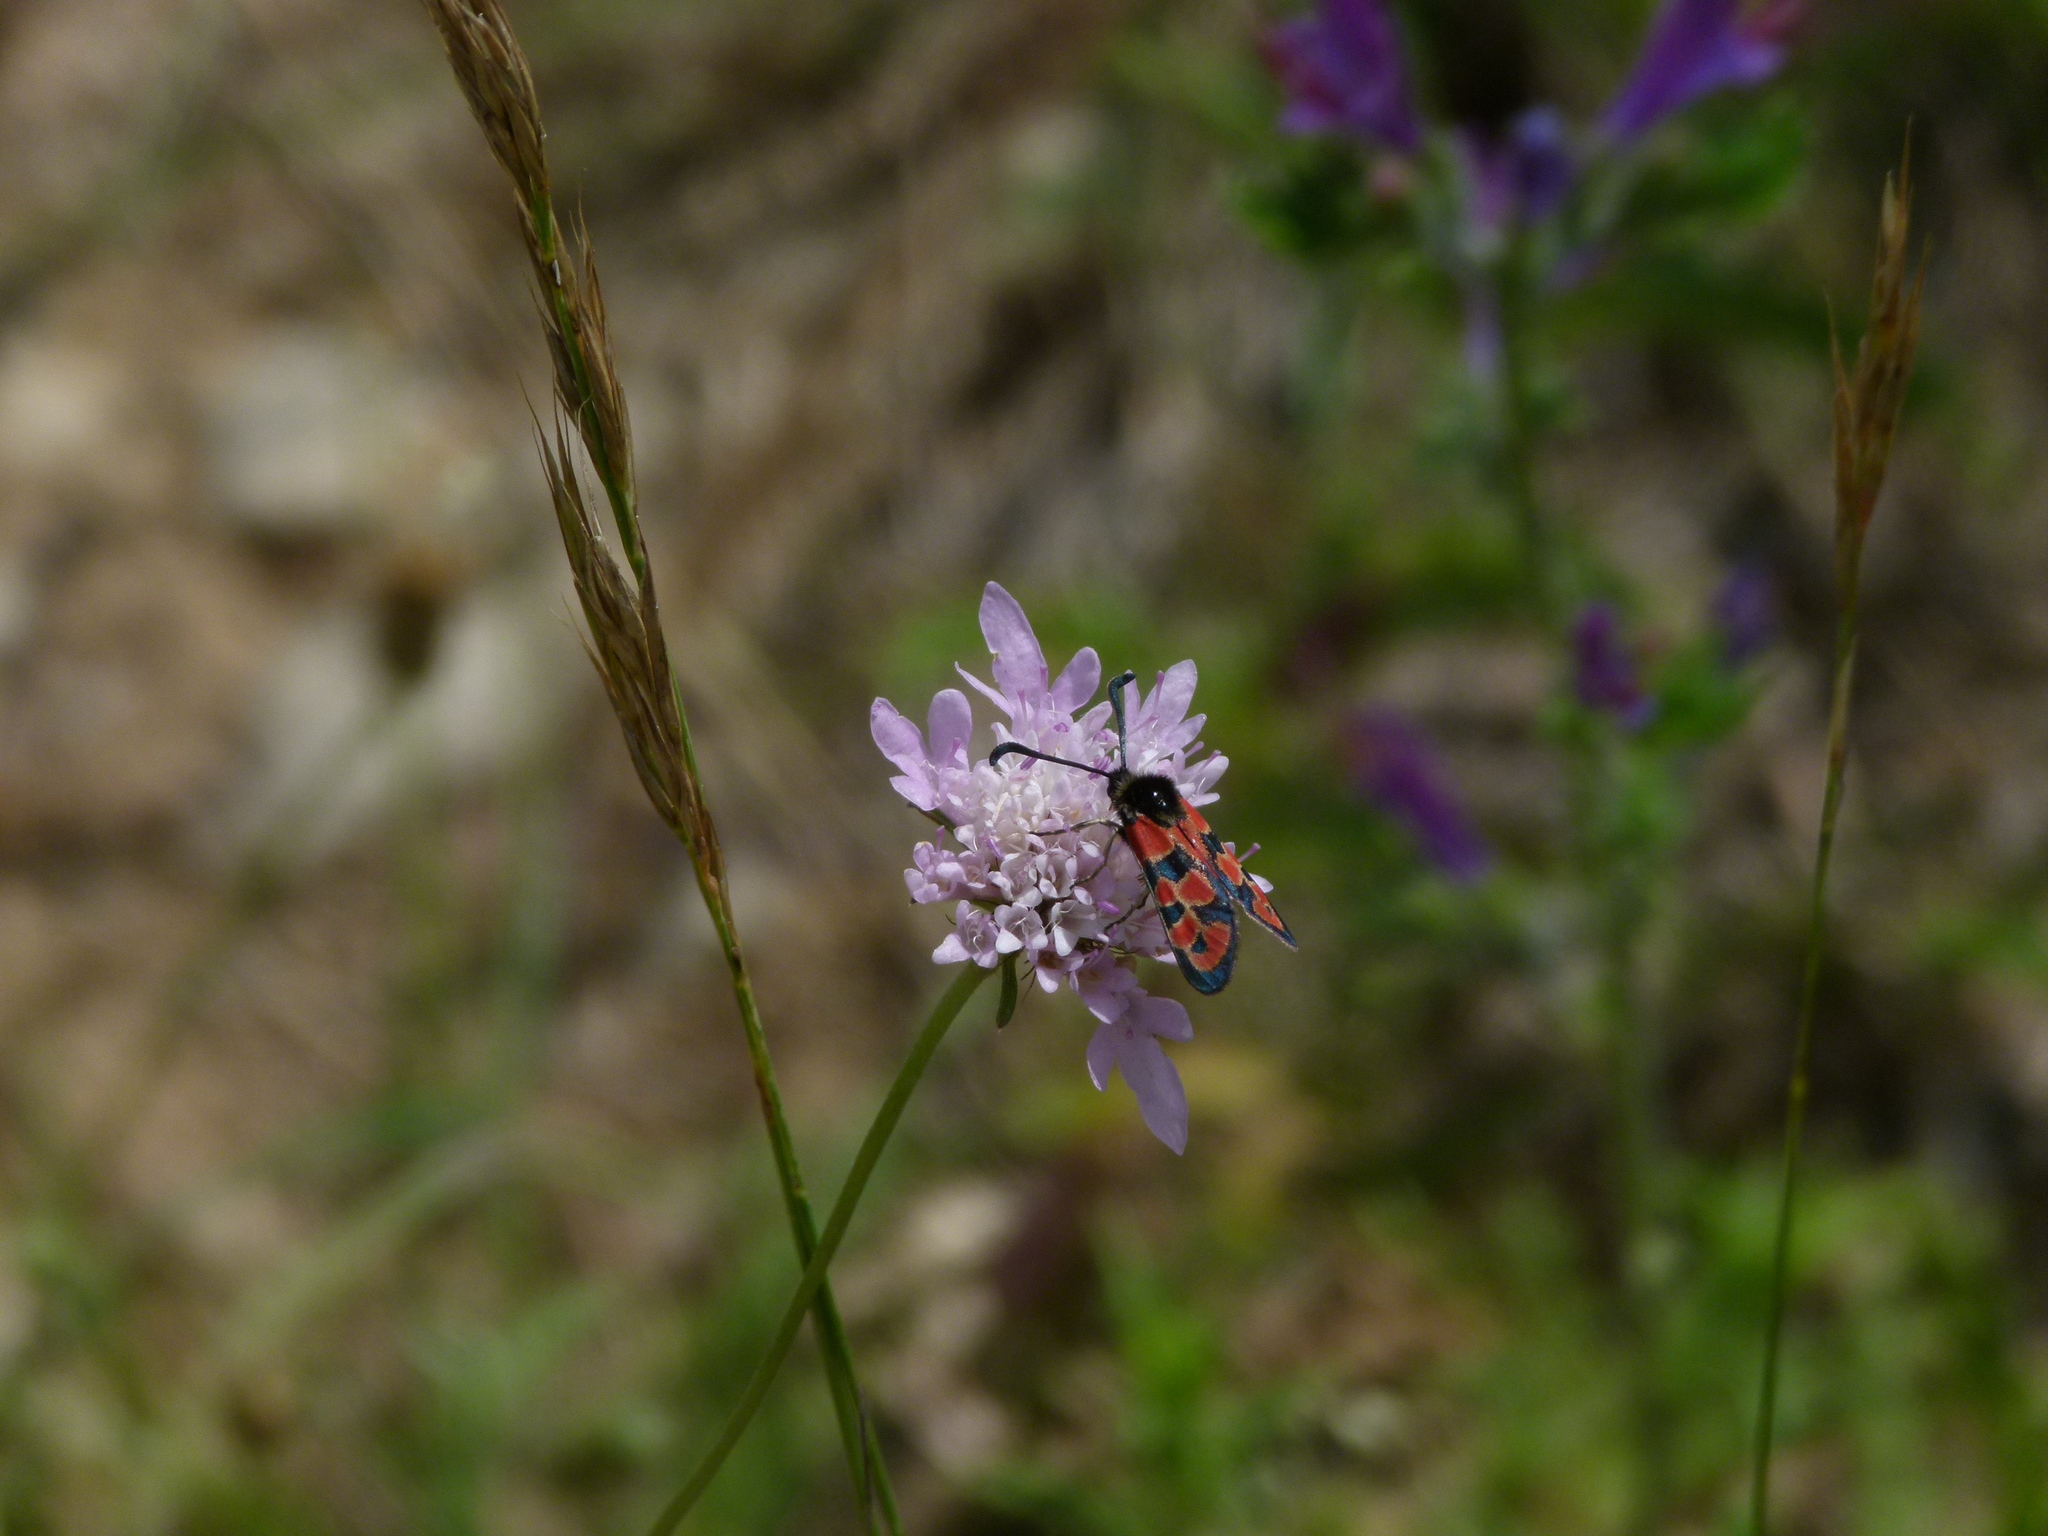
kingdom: Animalia
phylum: Arthropoda
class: Insecta
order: Lepidoptera
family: Zygaenidae
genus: Zygaena
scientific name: Zygaena hilaris
